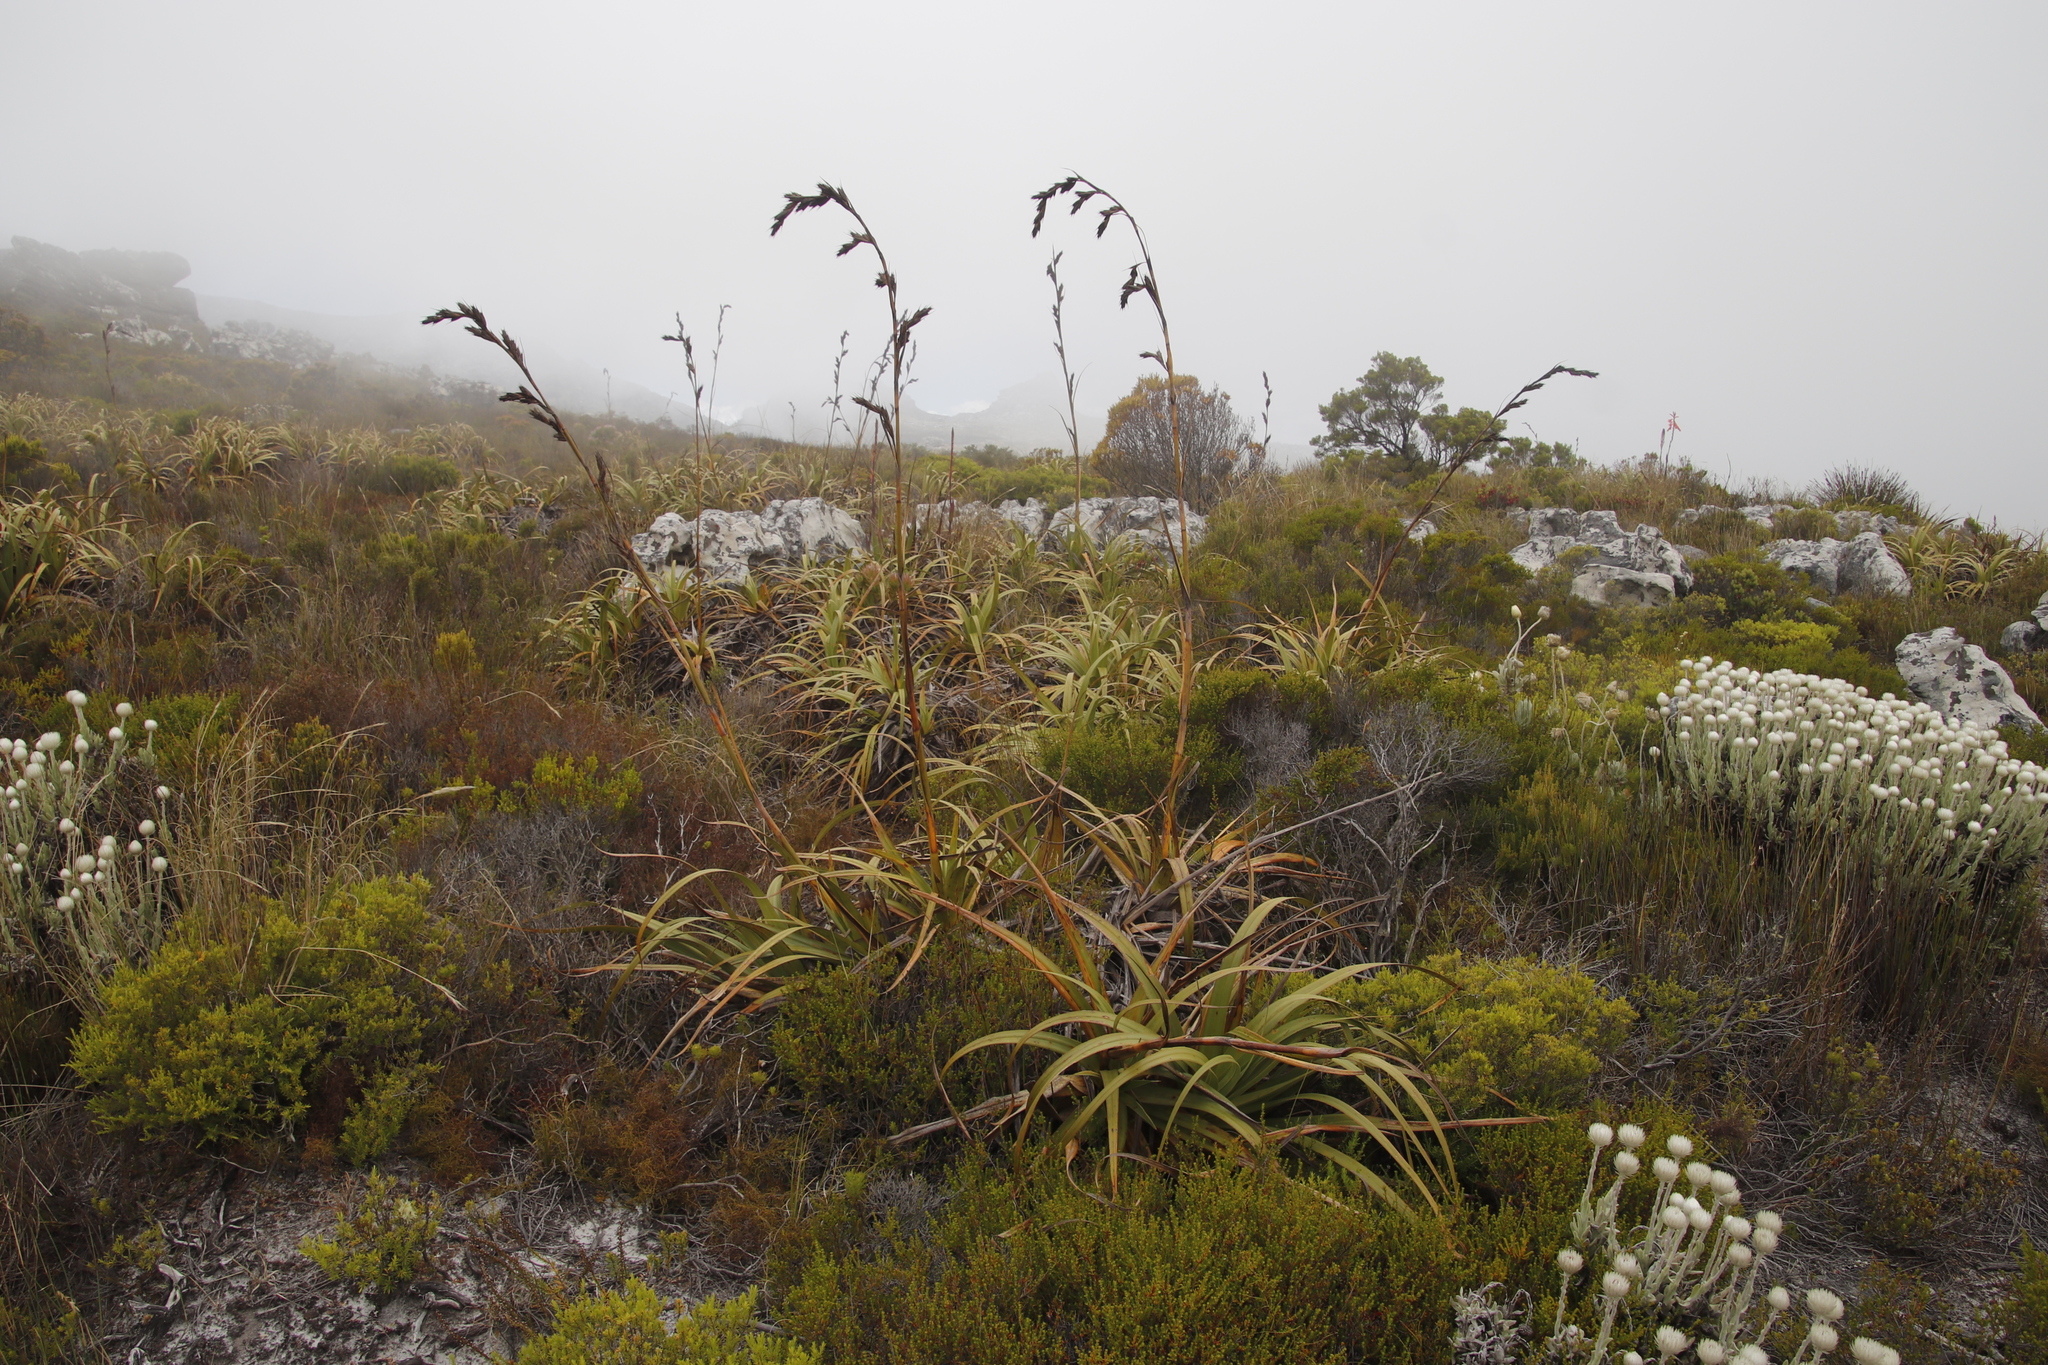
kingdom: Plantae
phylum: Tracheophyta
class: Liliopsida
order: Poales
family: Cyperaceae
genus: Tetraria
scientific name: Tetraria thermalis
